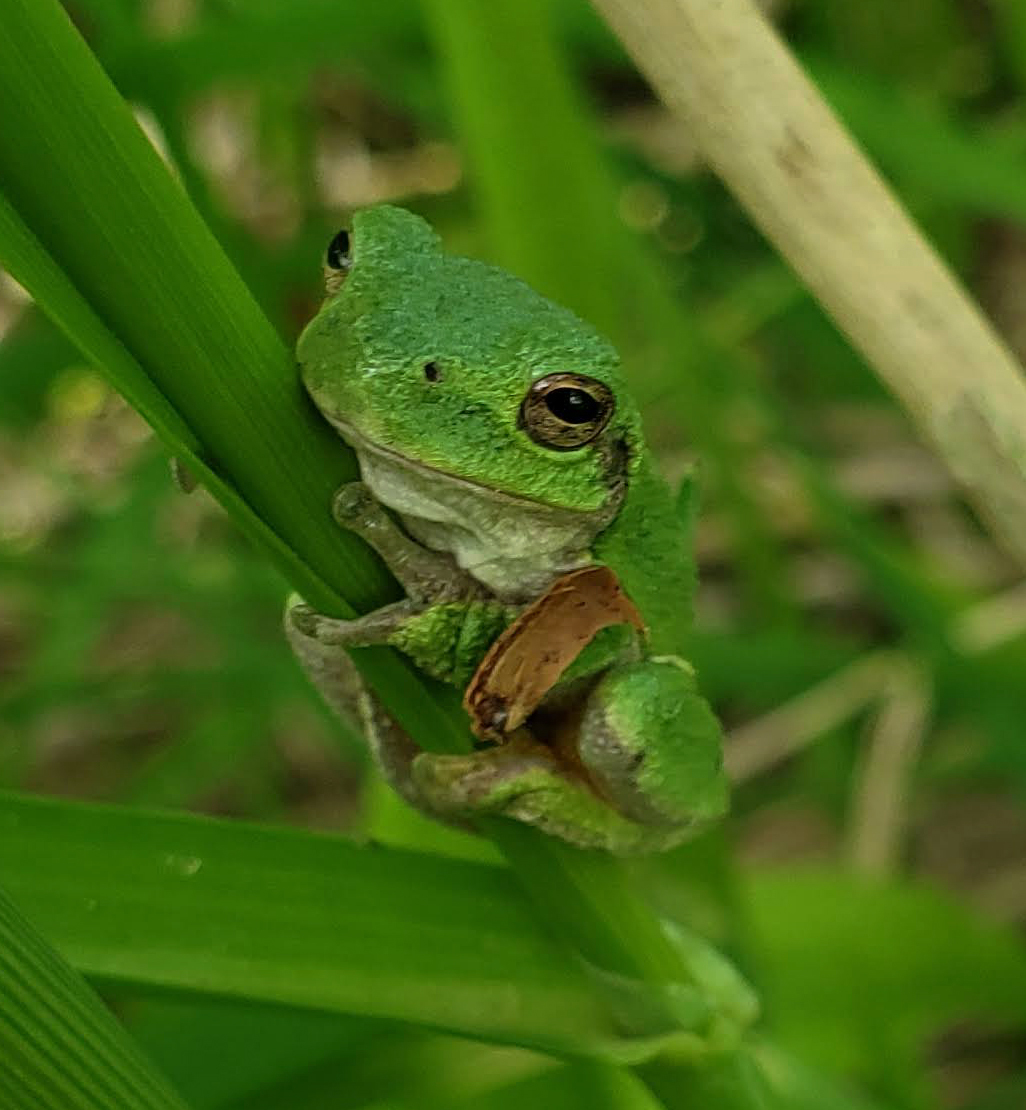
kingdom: Animalia
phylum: Chordata
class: Amphibia
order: Anura
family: Hylidae
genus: Hyla
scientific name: Hyla
